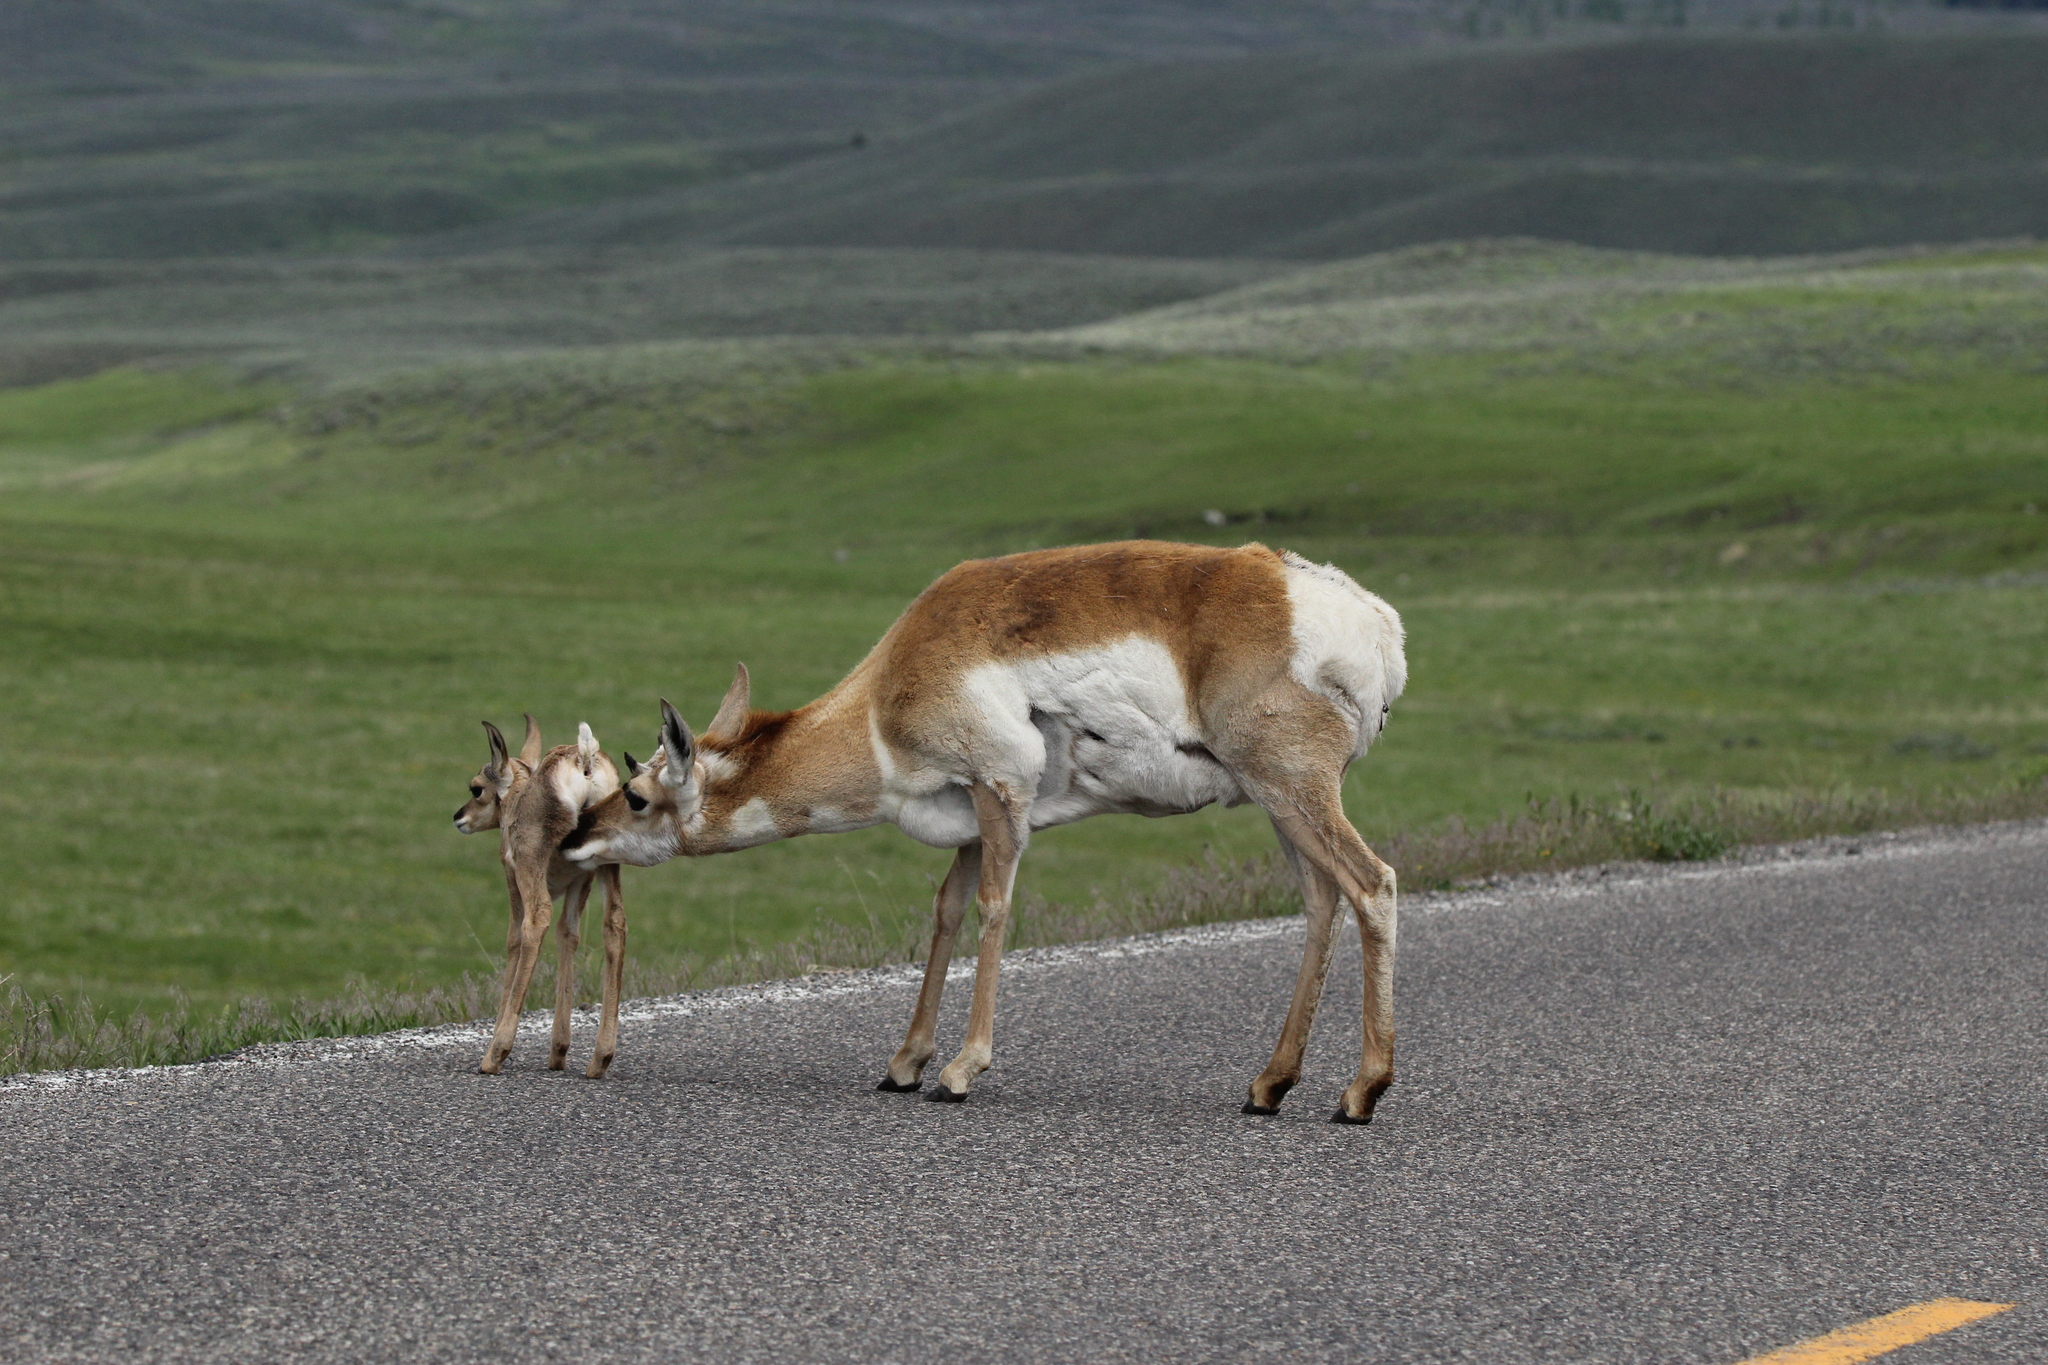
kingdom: Animalia
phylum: Chordata
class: Mammalia
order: Artiodactyla
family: Antilocapridae
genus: Antilocapra
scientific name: Antilocapra americana
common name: Pronghorn
